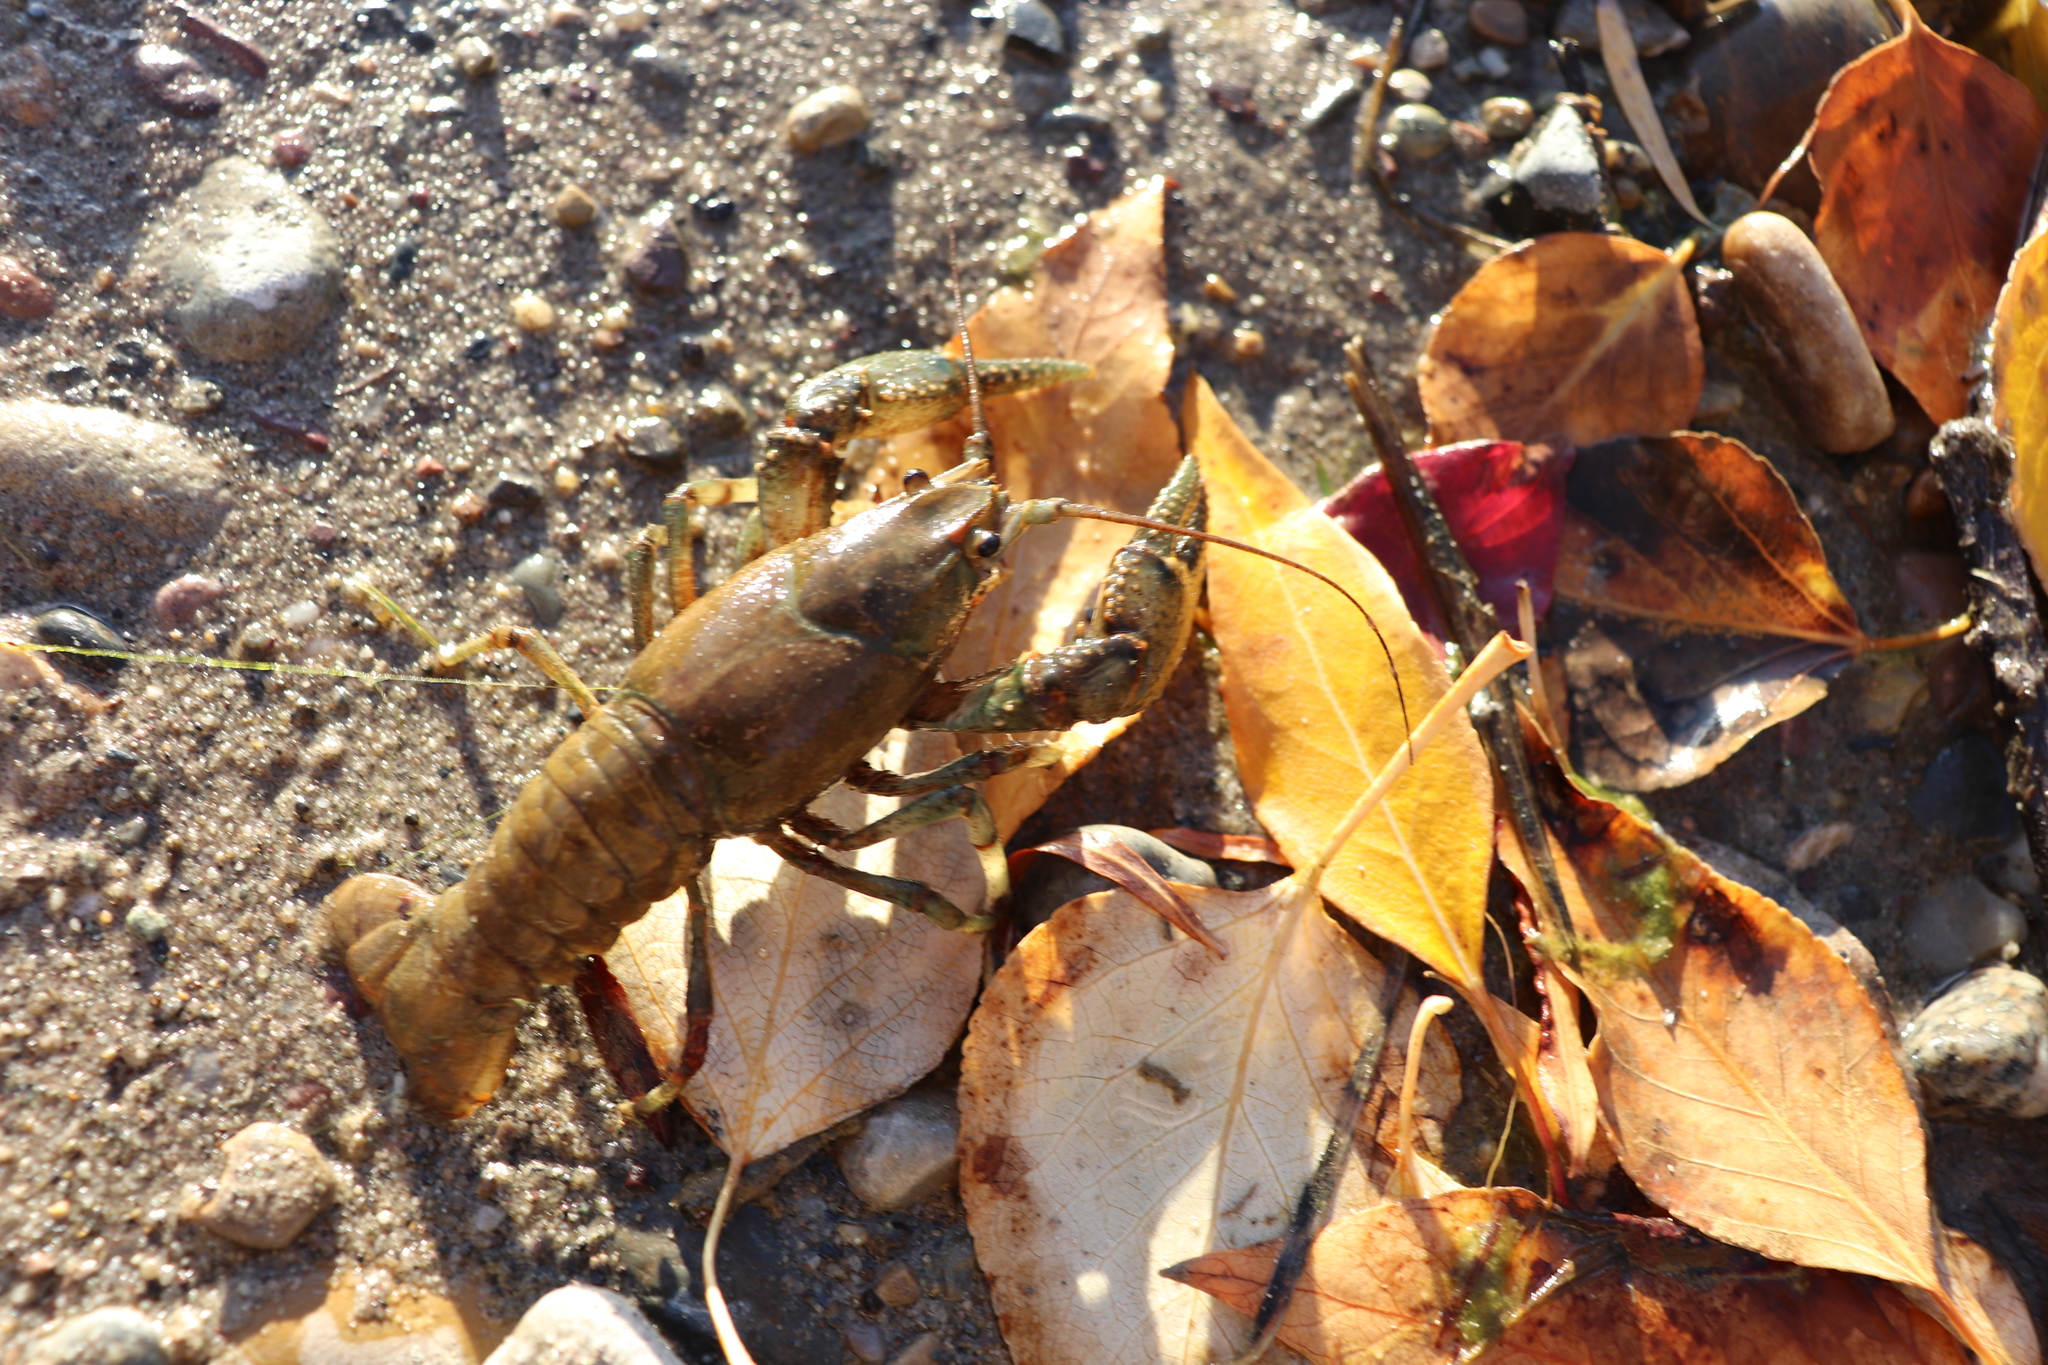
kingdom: Animalia
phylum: Arthropoda
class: Malacostraca
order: Decapoda
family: Cambaridae
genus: Faxonius
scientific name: Faxonius virilis
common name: Virile crayfish
